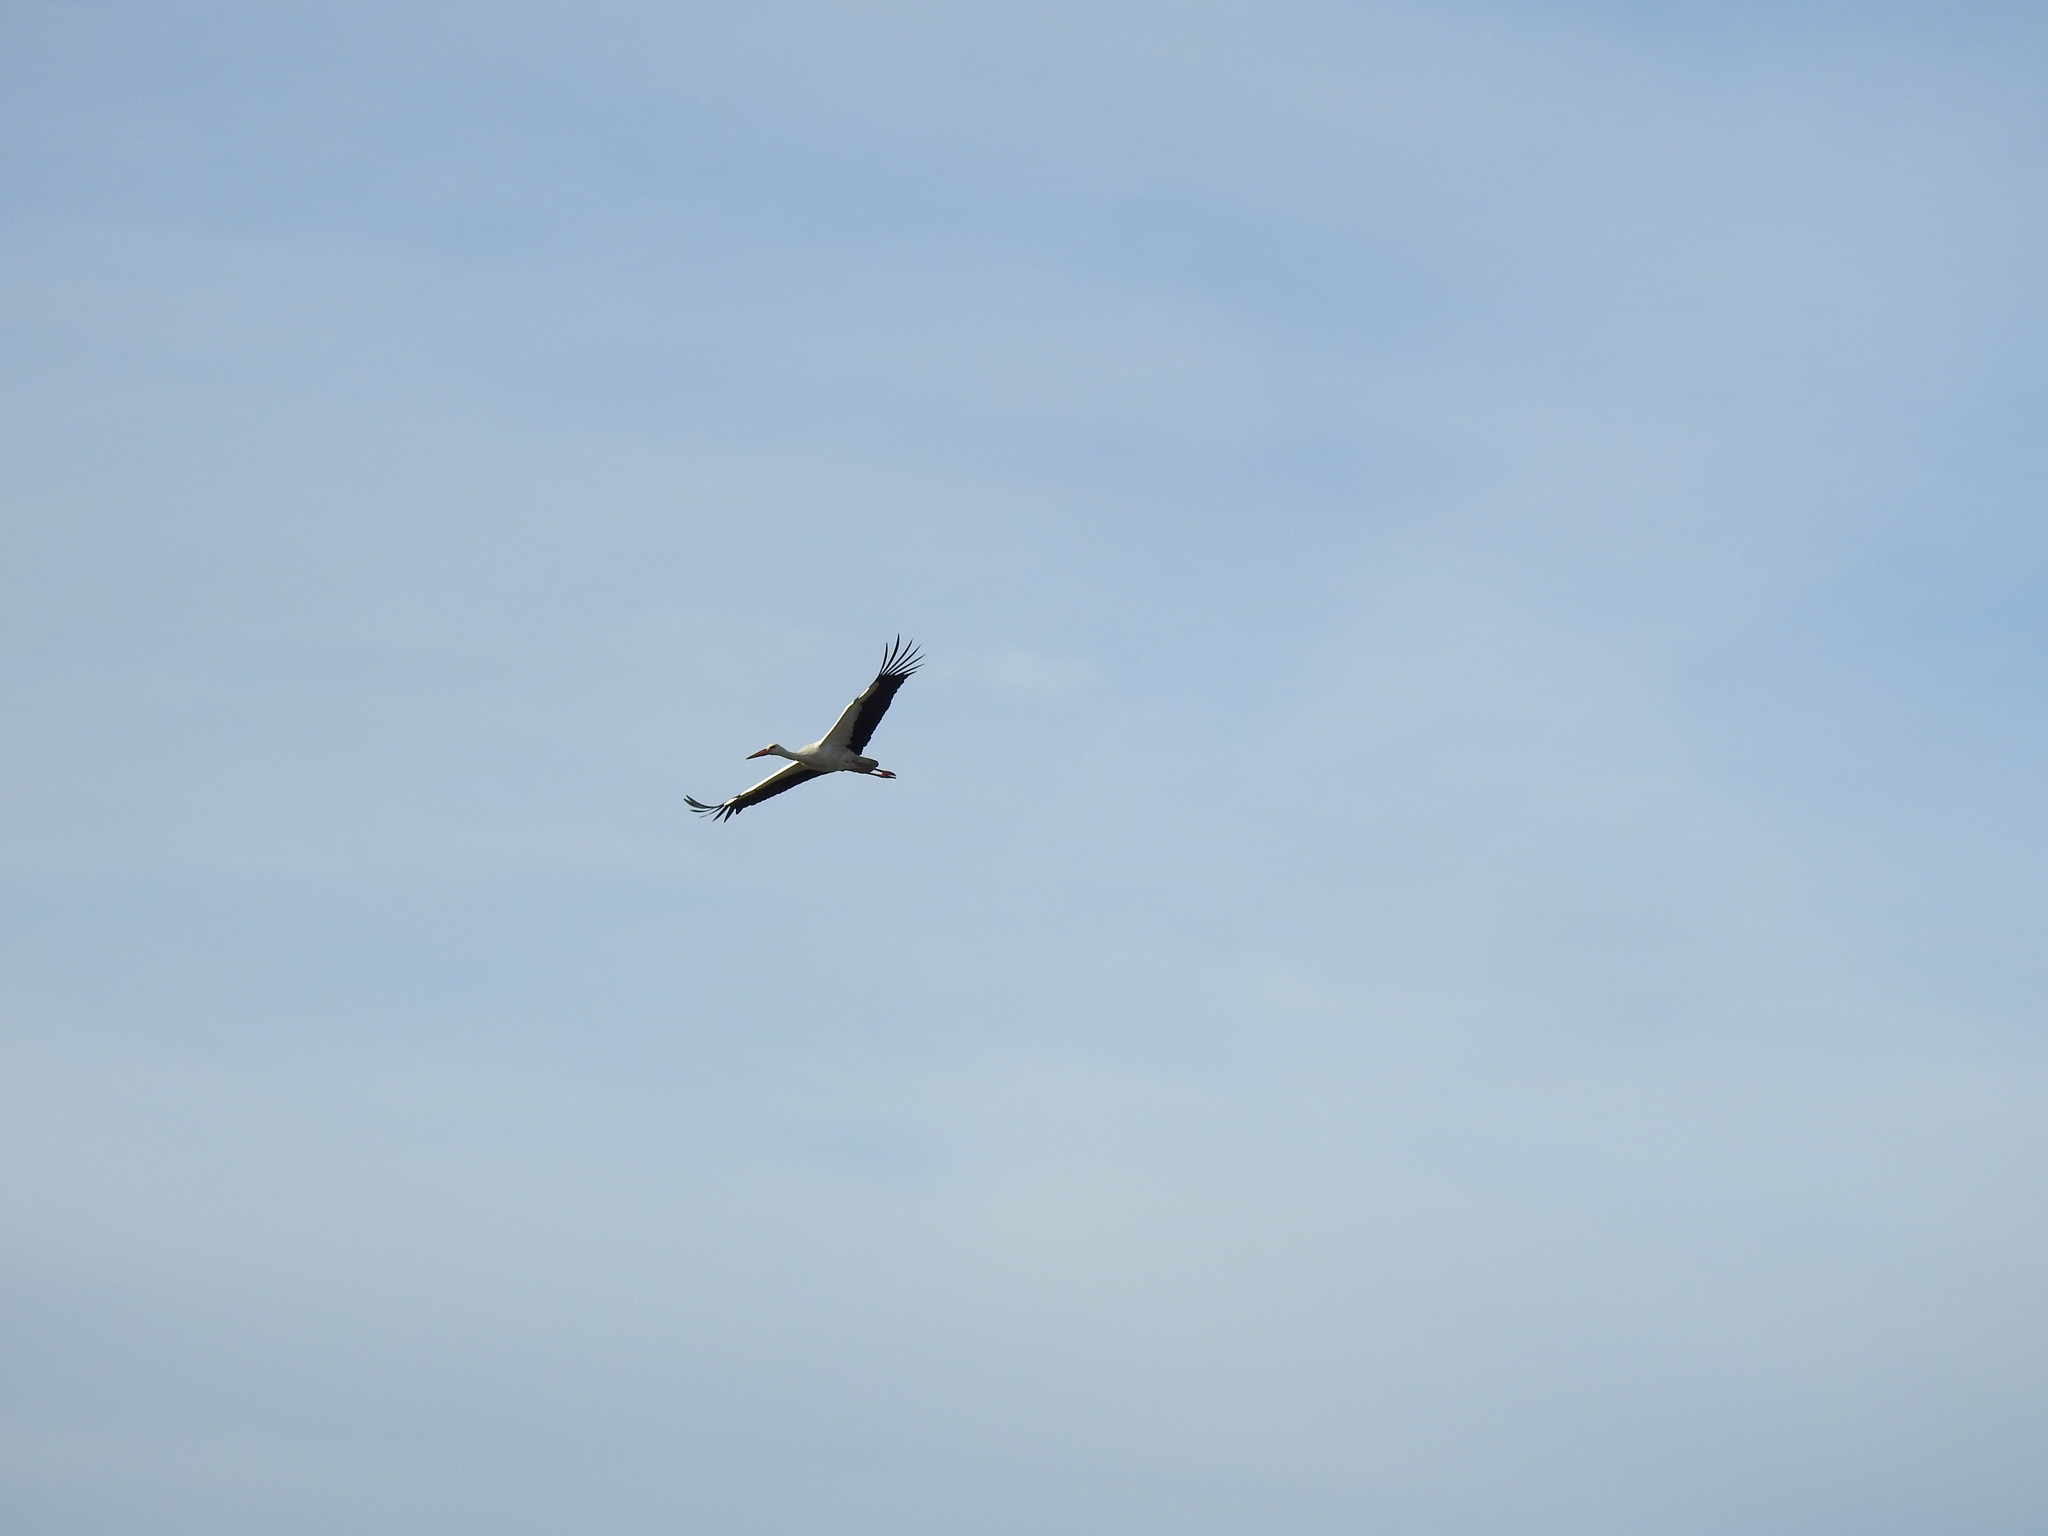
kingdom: Animalia
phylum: Chordata
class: Aves
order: Ciconiiformes
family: Ciconiidae
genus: Ciconia
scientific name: Ciconia ciconia
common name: White stork
